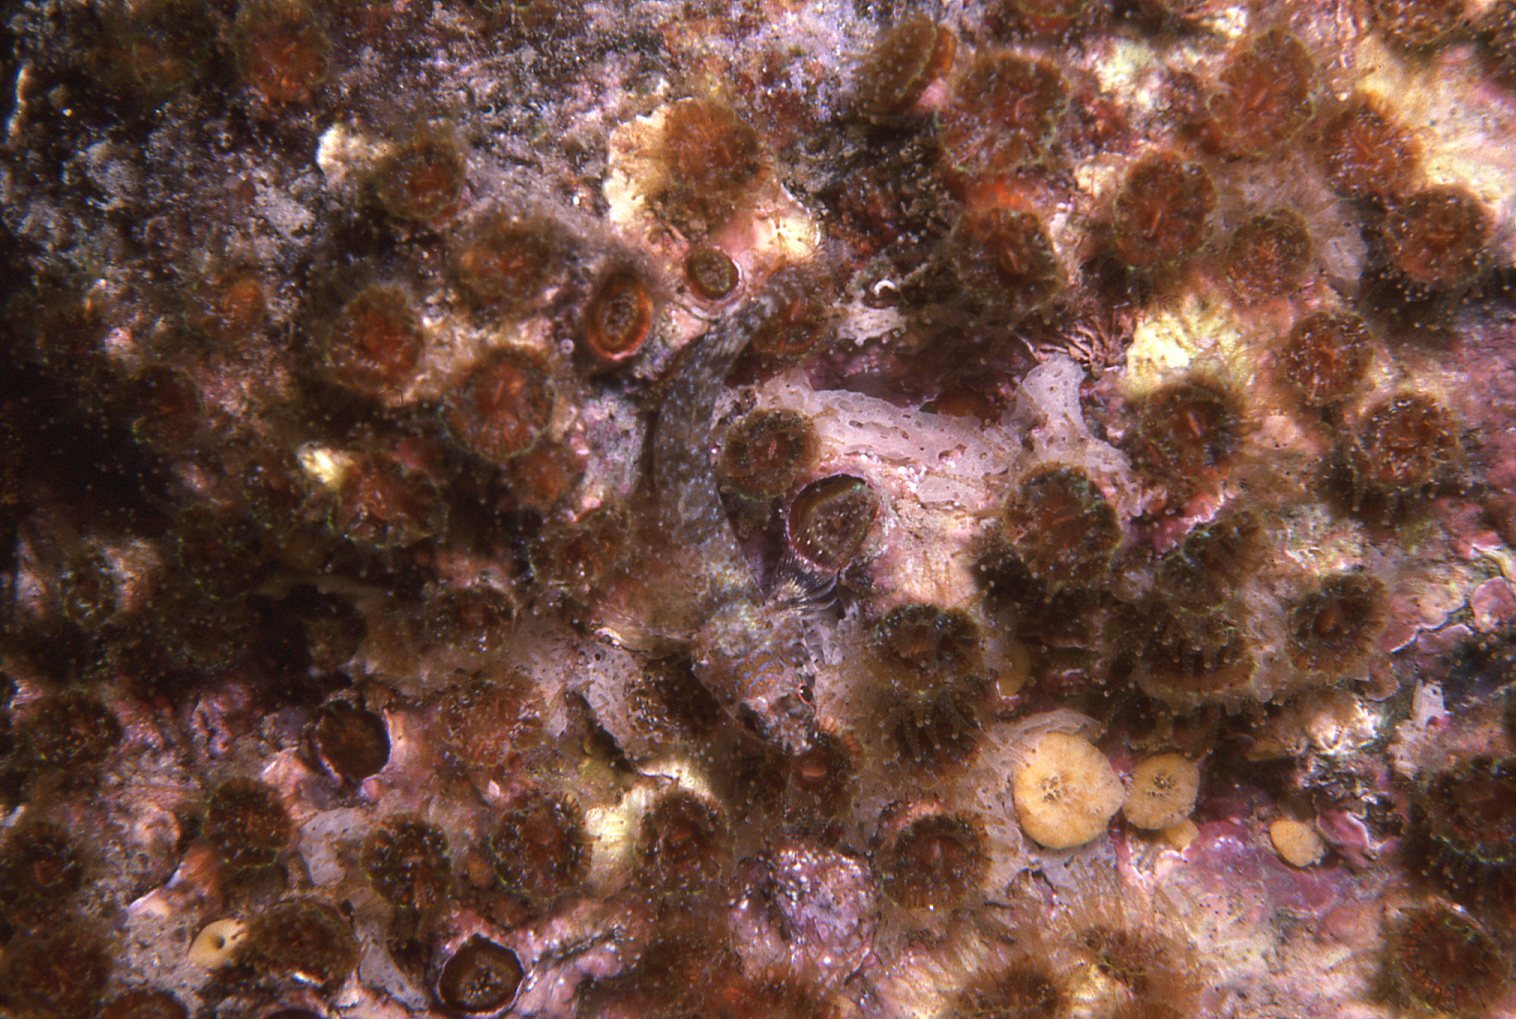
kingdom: Animalia
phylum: Cnidaria
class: Anthozoa
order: Scleractinia
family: Rhizangiidae
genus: Culicia
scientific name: Culicia tenella
